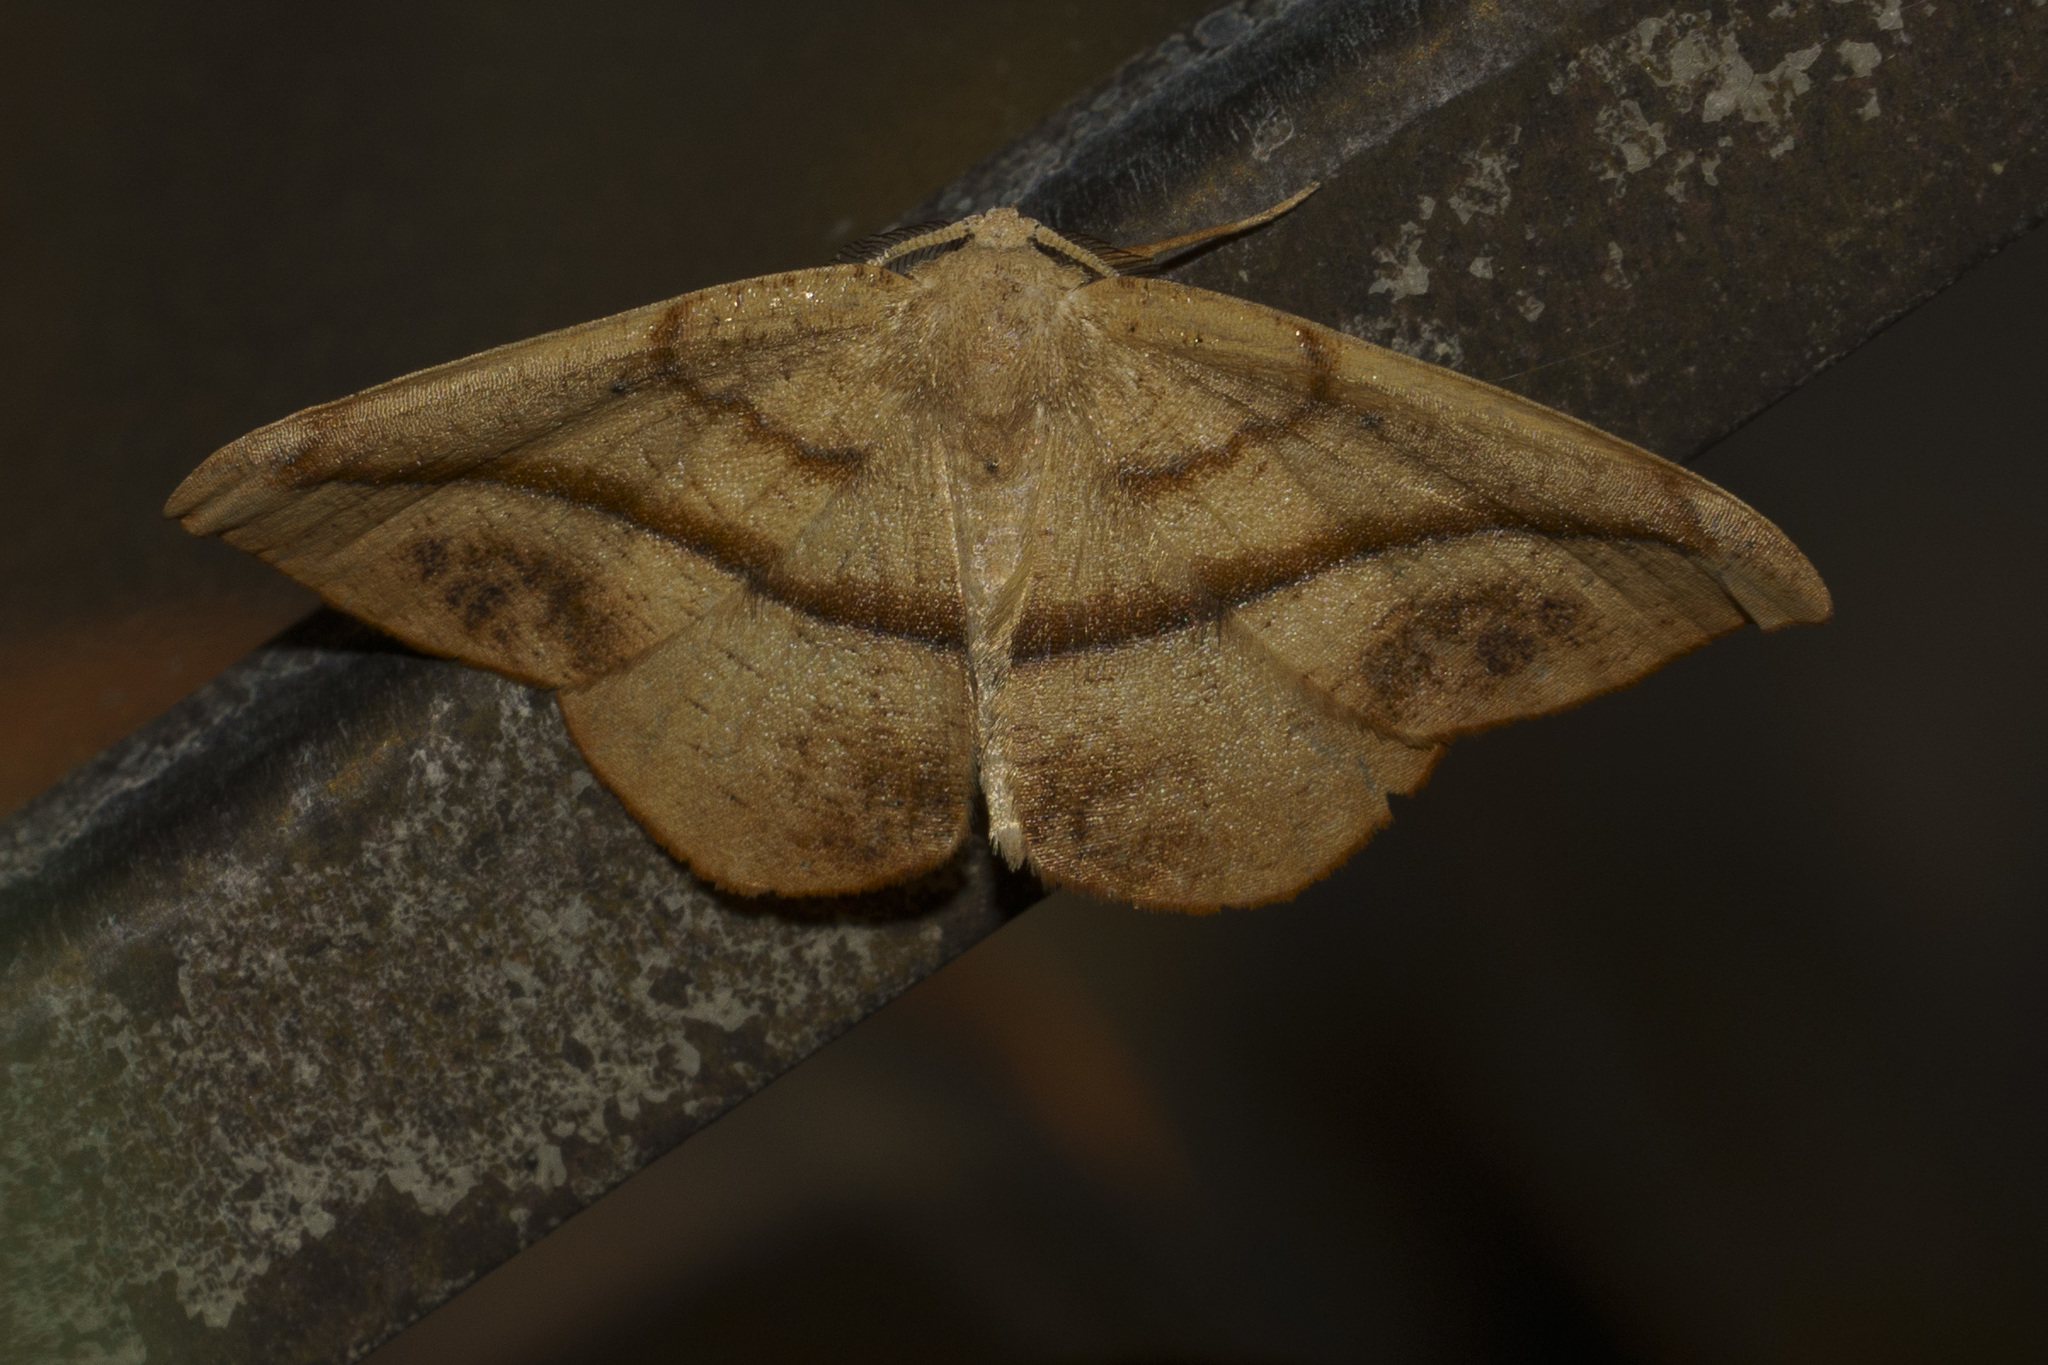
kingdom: Animalia
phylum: Arthropoda
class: Insecta
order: Lepidoptera
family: Geometridae
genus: Patalene
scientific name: Patalene olyzonaria
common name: Juniper geometer moth
